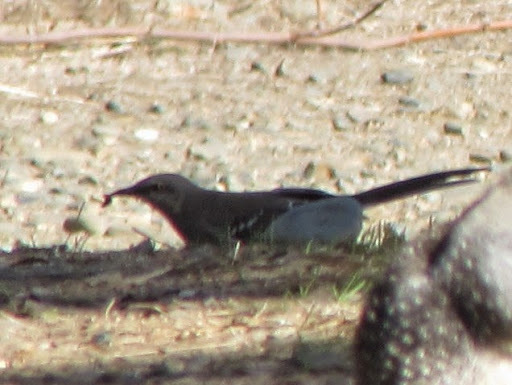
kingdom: Animalia
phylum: Chordata
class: Aves
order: Passeriformes
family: Mimidae
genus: Mimus
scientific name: Mimus polyglottos
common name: Northern mockingbird
